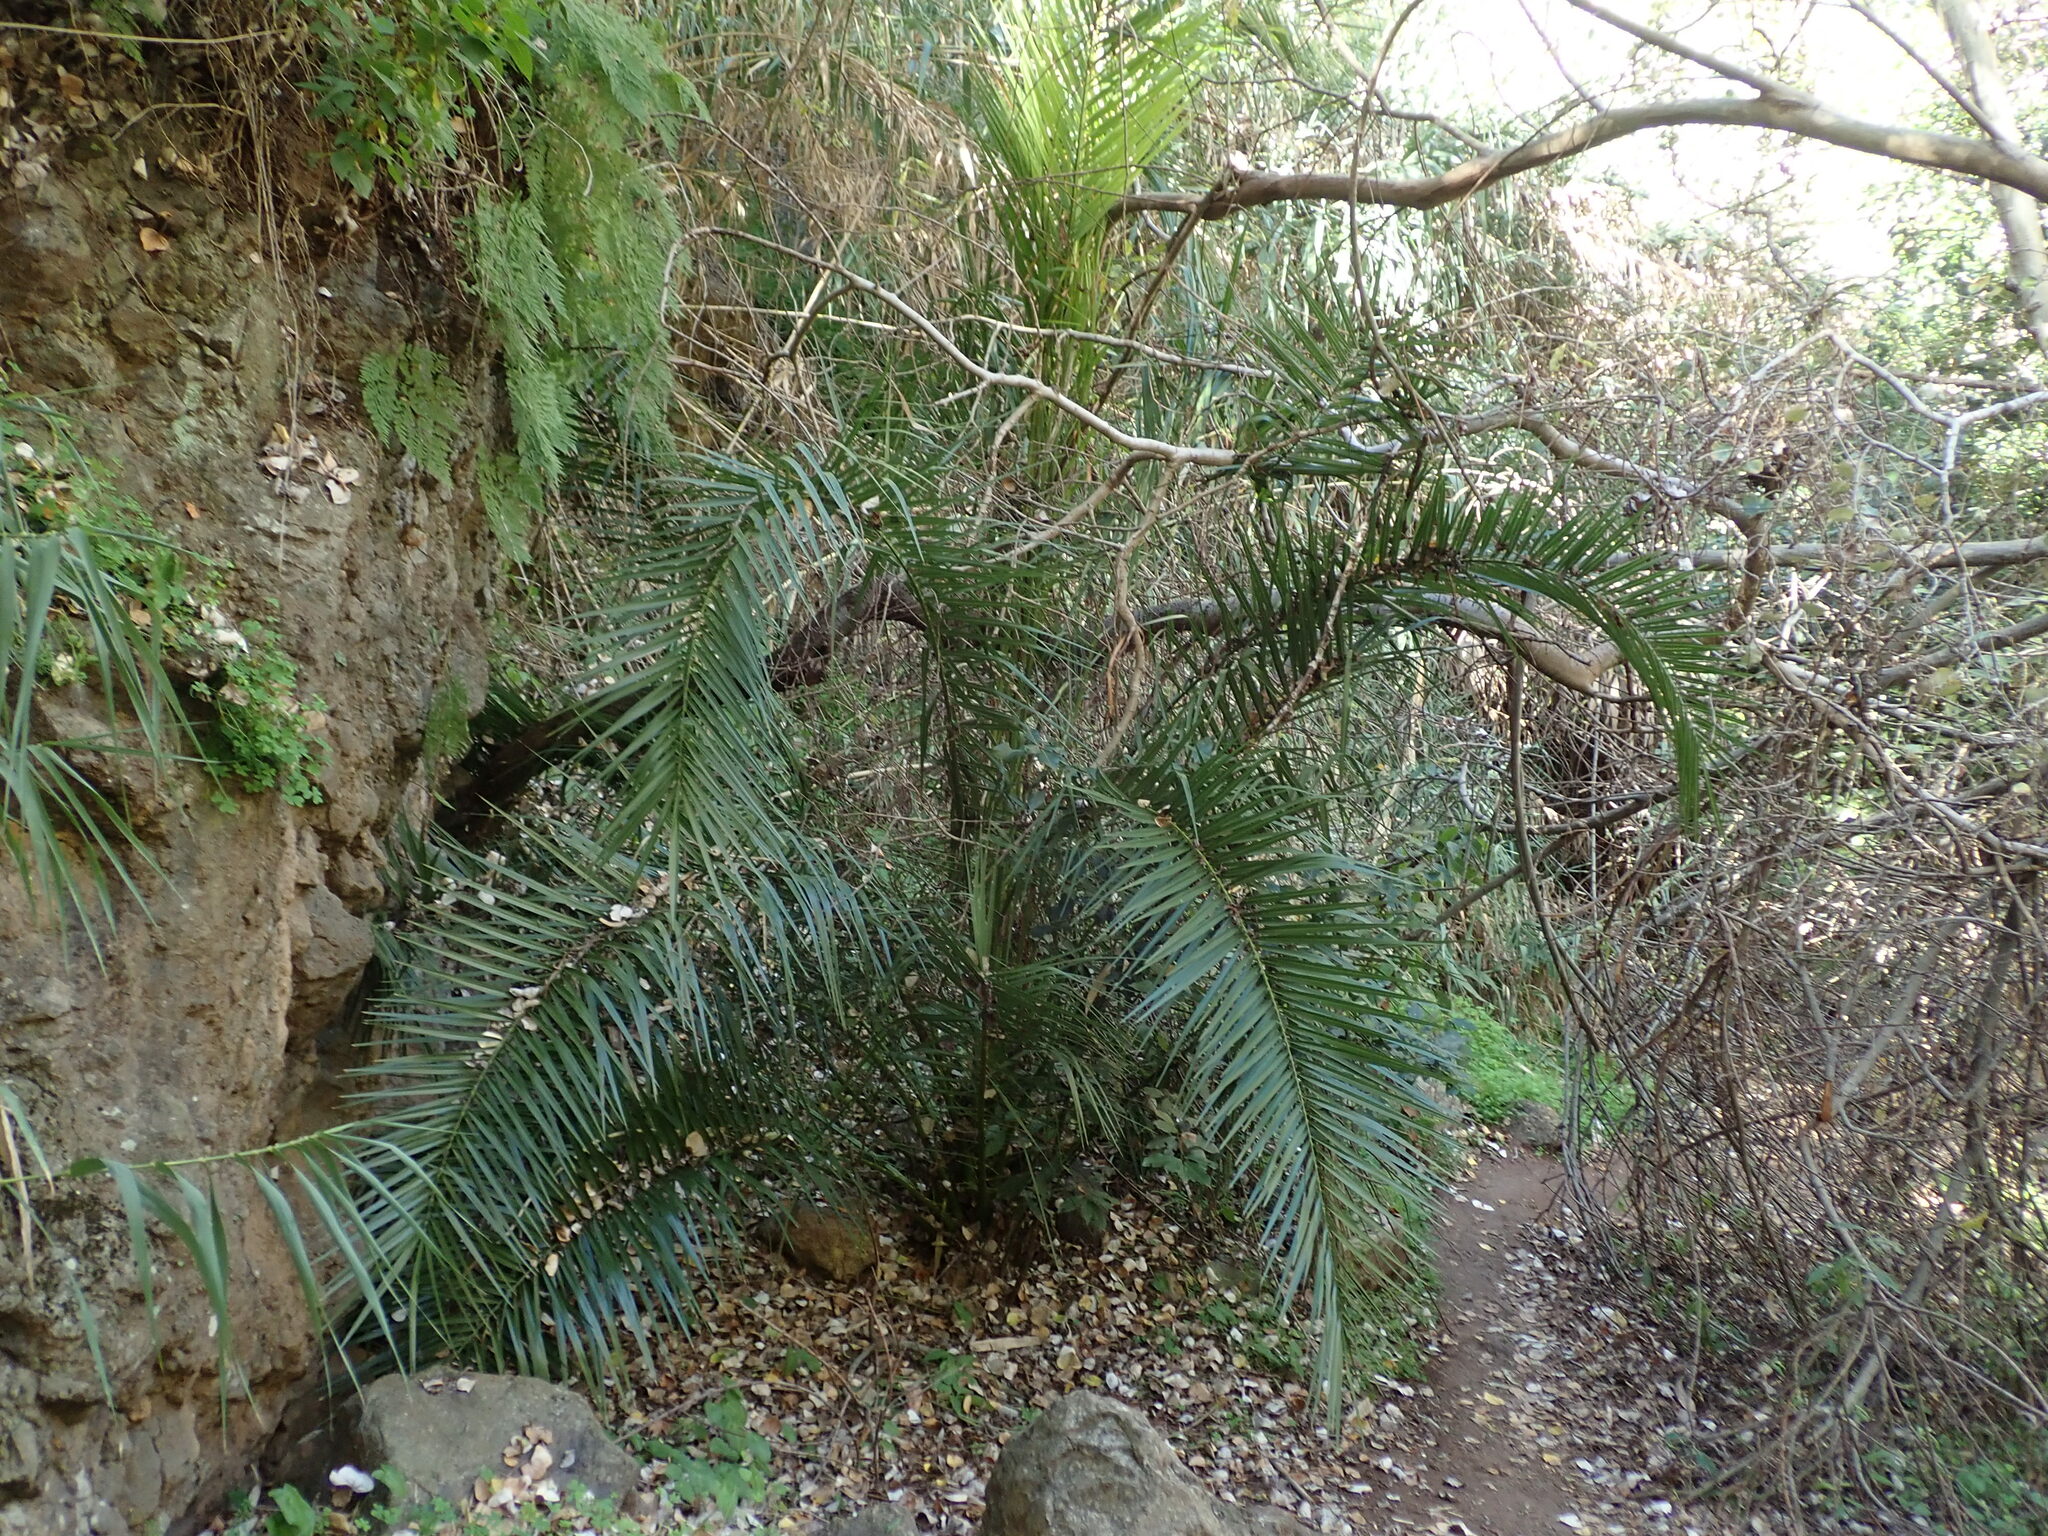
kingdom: Plantae
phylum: Tracheophyta
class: Liliopsida
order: Arecales
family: Arecaceae
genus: Phoenix
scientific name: Phoenix canariensis
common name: Canary island date palm
